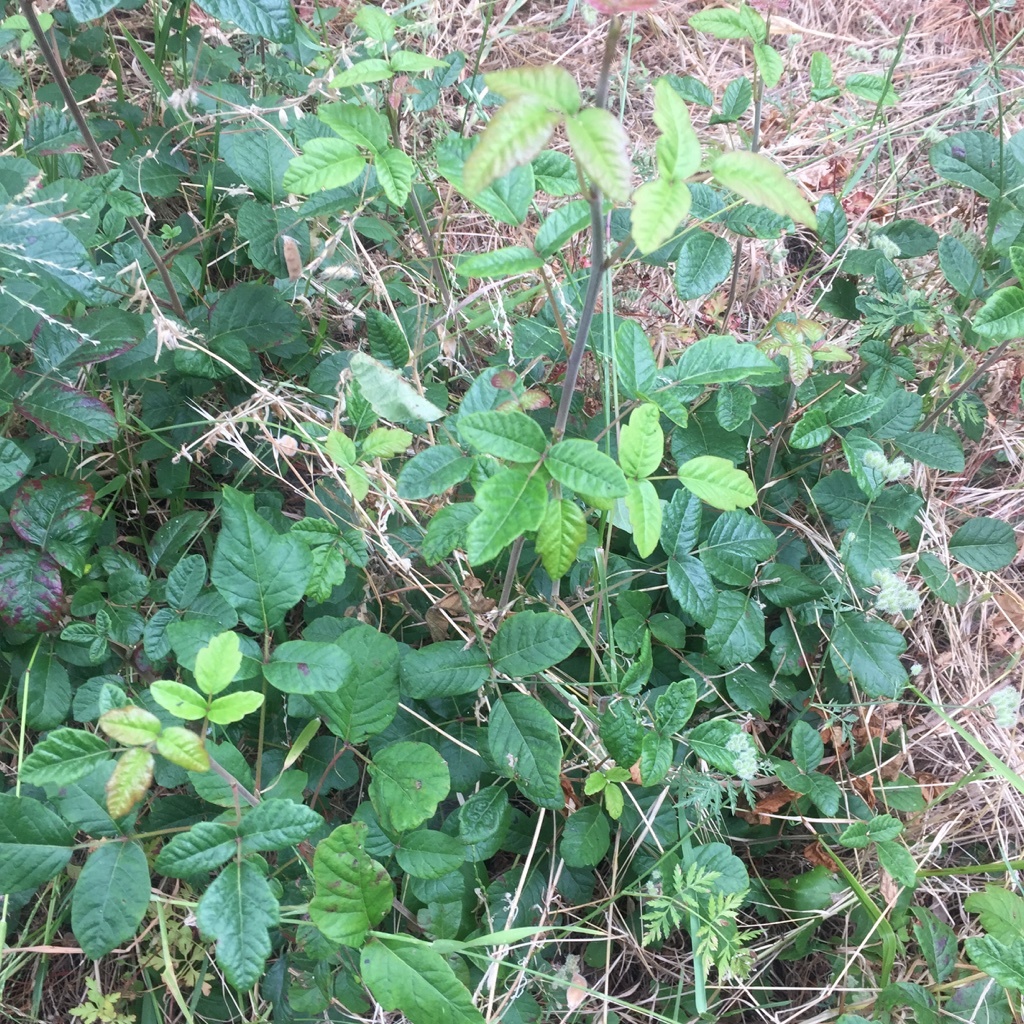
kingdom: Plantae
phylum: Tracheophyta
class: Magnoliopsida
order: Sapindales
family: Anacardiaceae
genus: Toxicodendron
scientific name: Toxicodendron diversilobum
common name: Pacific poison-oak
